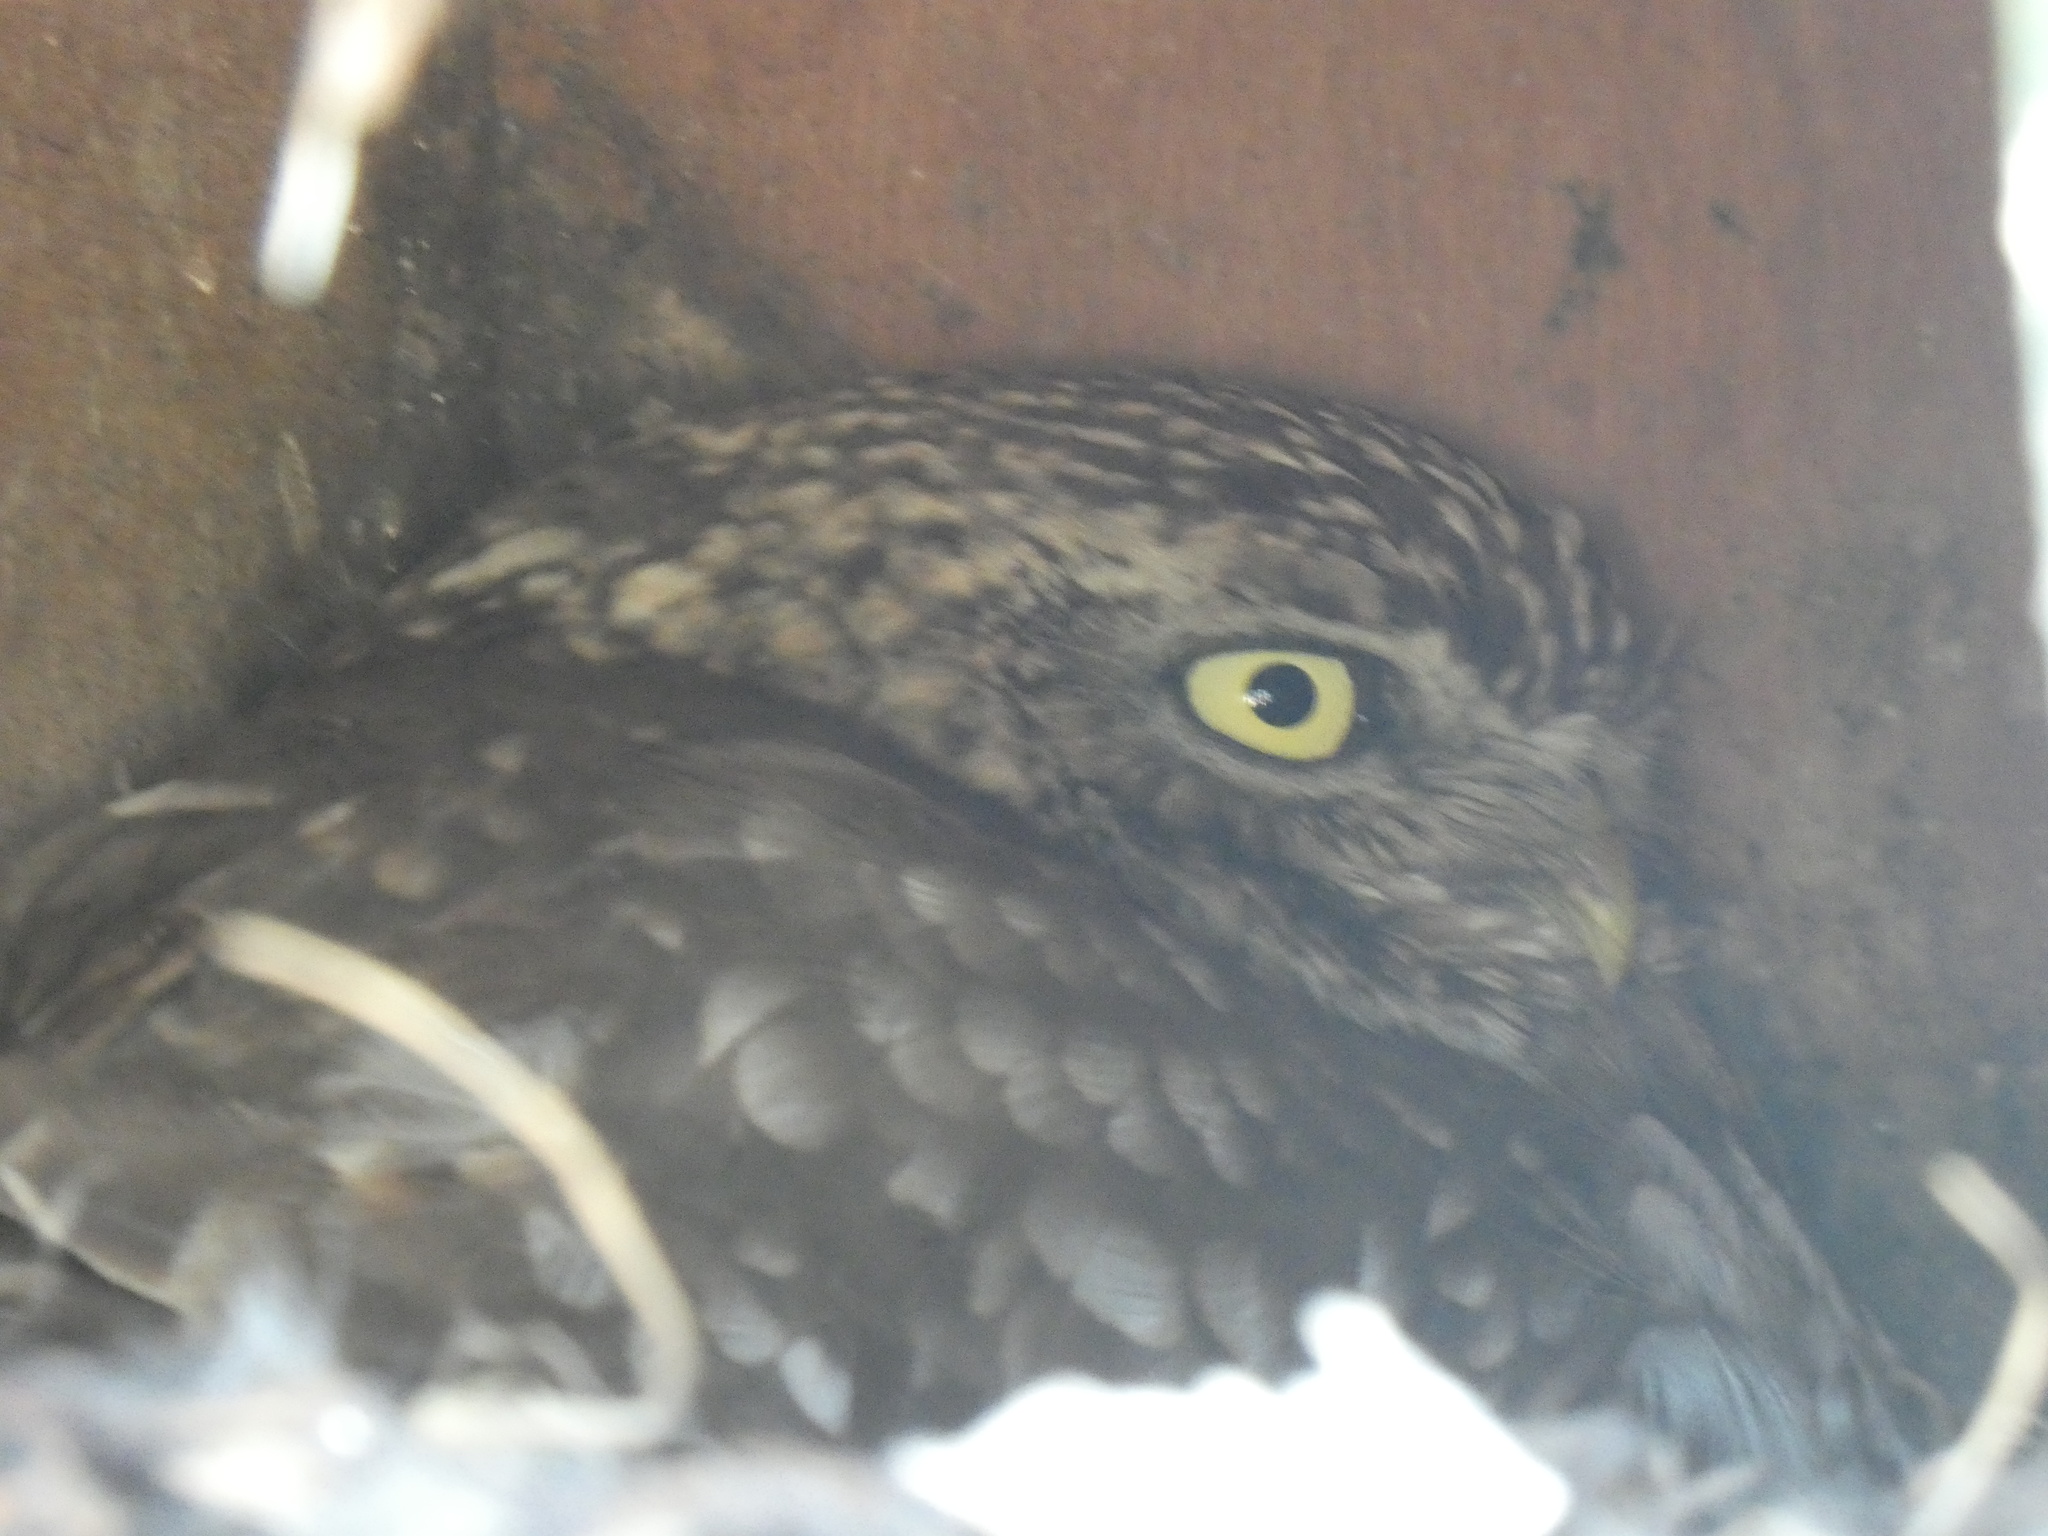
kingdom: Animalia
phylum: Chordata
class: Aves
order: Strigiformes
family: Strigidae
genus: Athene
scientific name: Athene noctua
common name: Little owl
